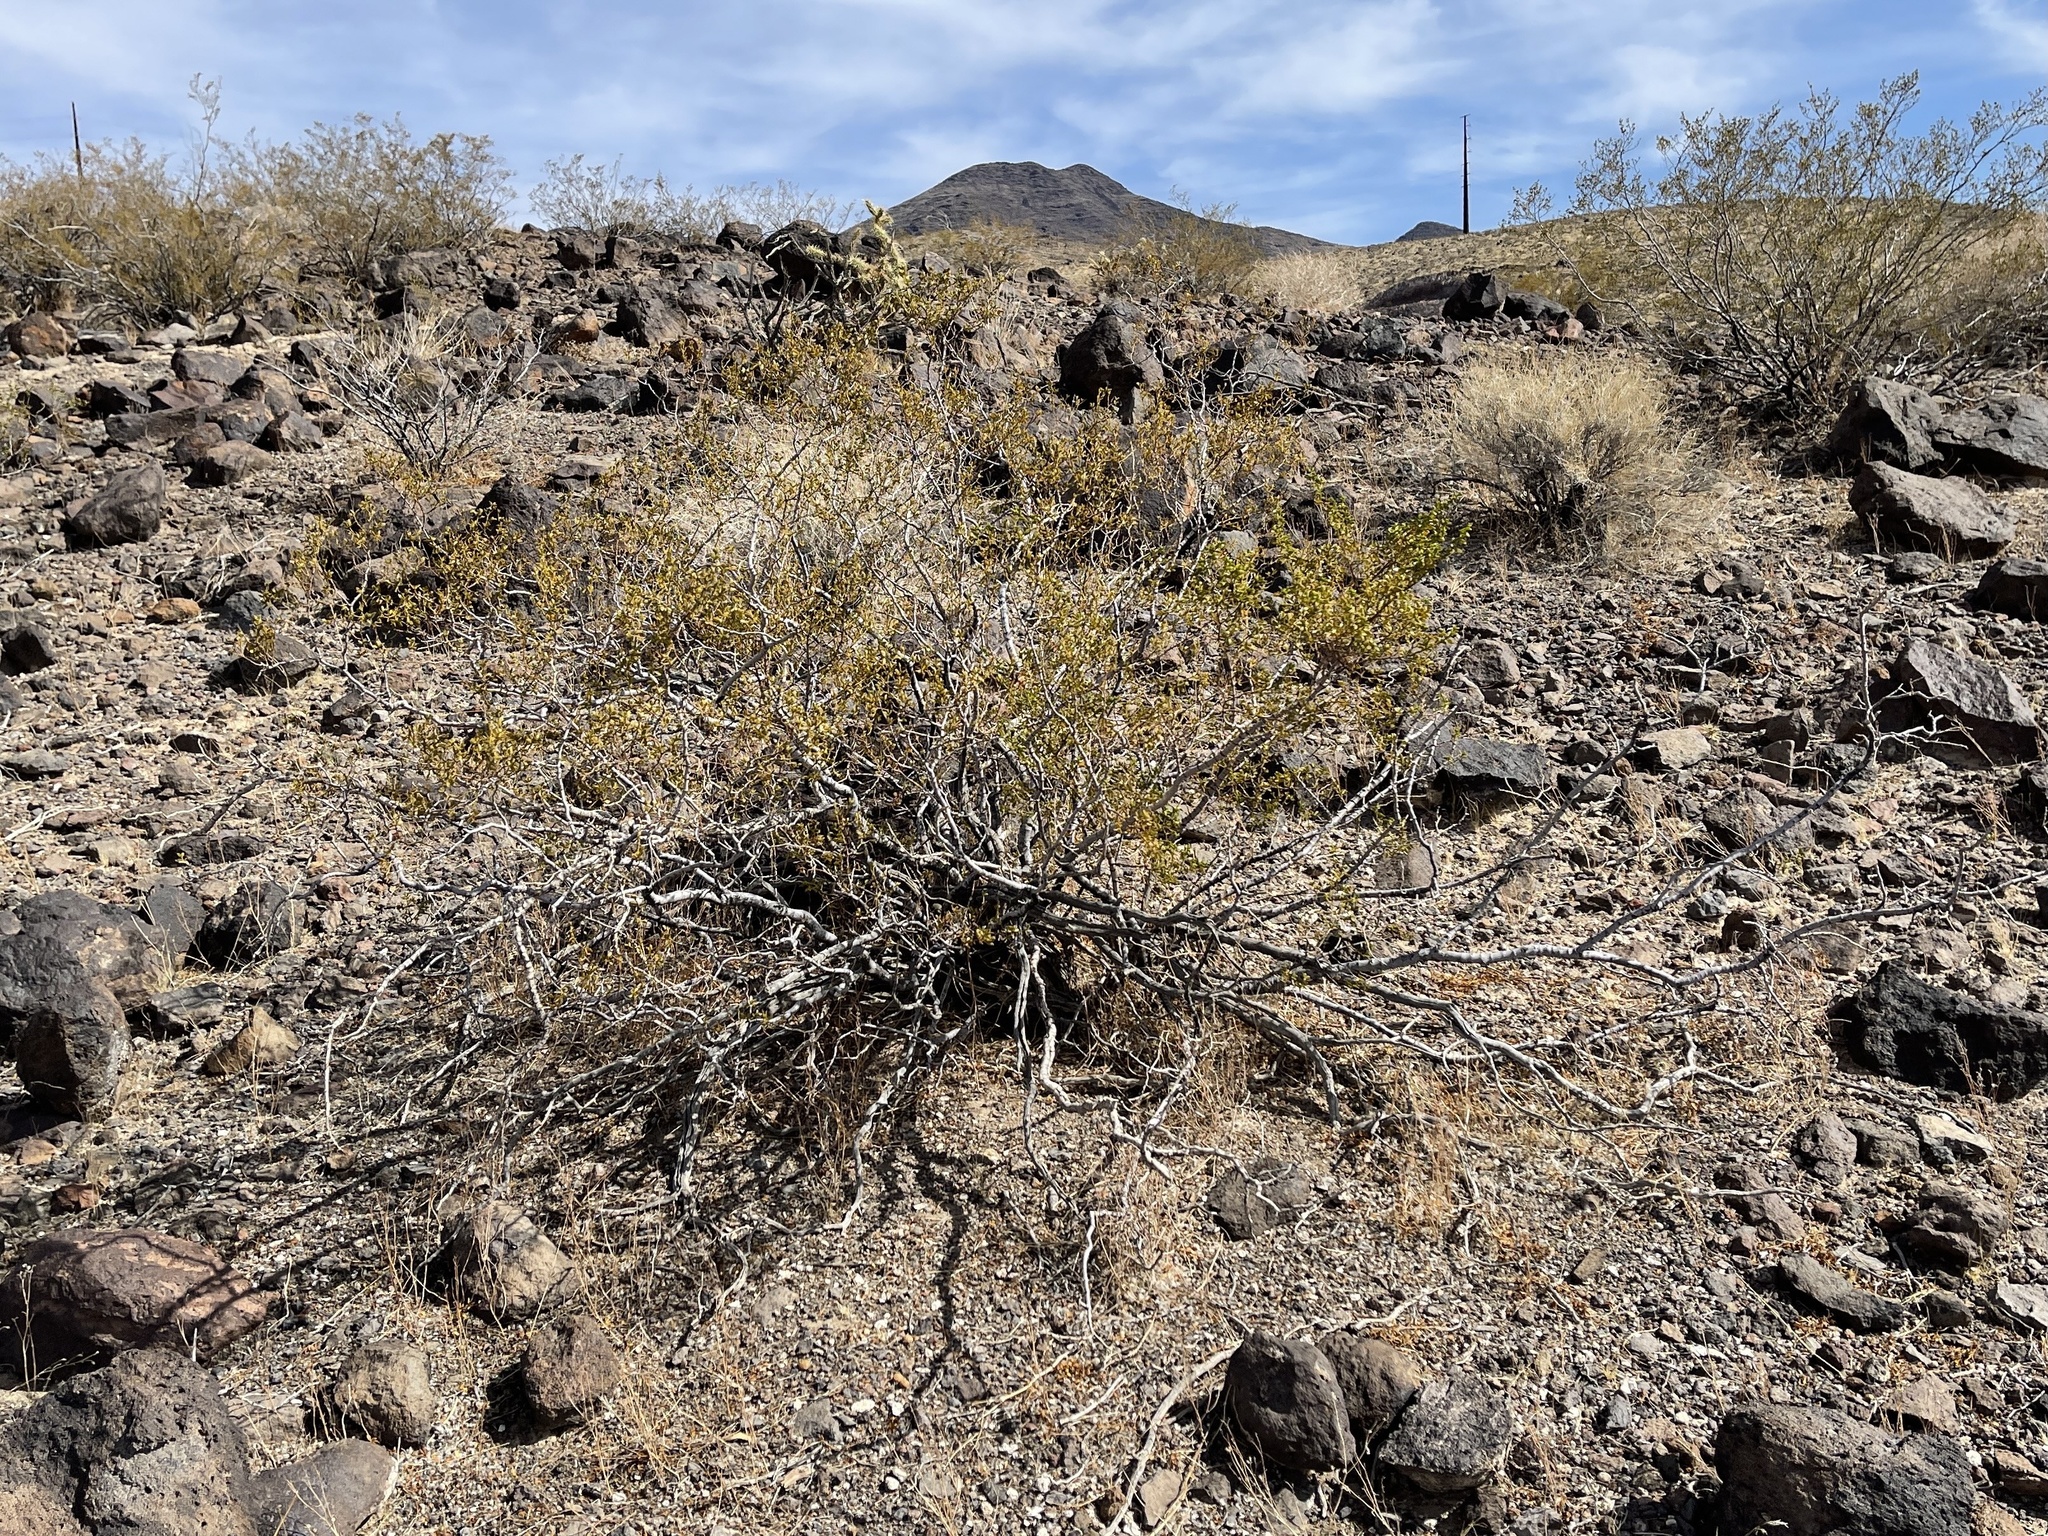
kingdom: Plantae
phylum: Tracheophyta
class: Magnoliopsida
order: Zygophyllales
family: Zygophyllaceae
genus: Larrea
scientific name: Larrea tridentata
